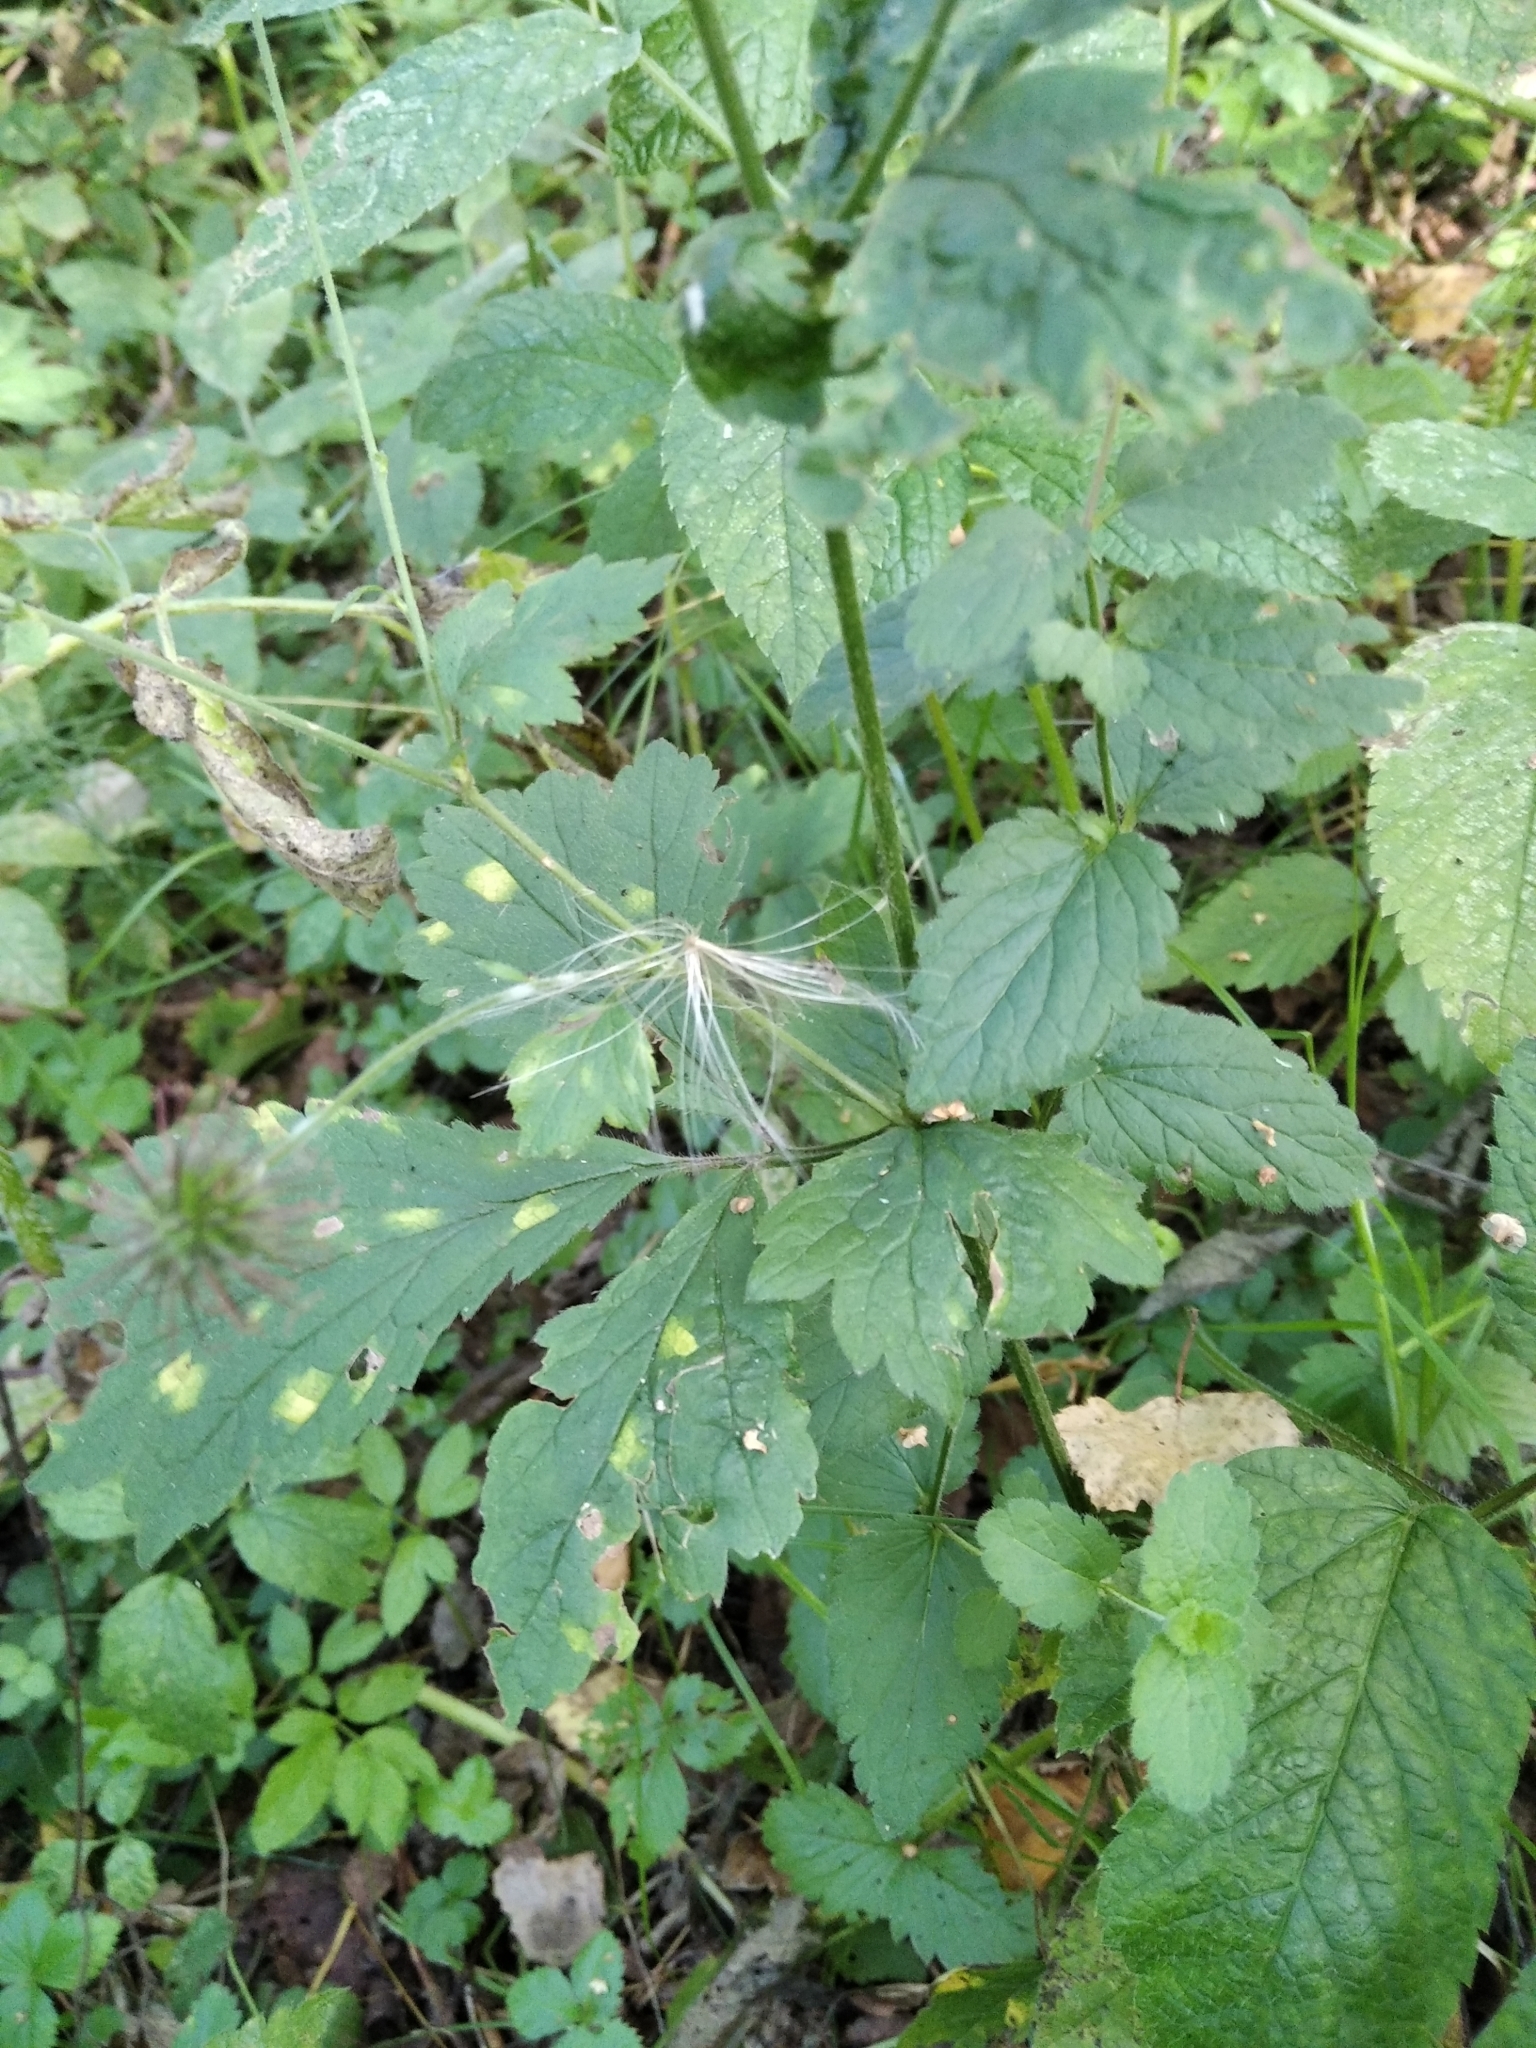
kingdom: Plantae
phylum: Tracheophyta
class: Magnoliopsida
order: Rosales
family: Rosaceae
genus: Geum
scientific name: Geum urbanum
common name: Wood avens
